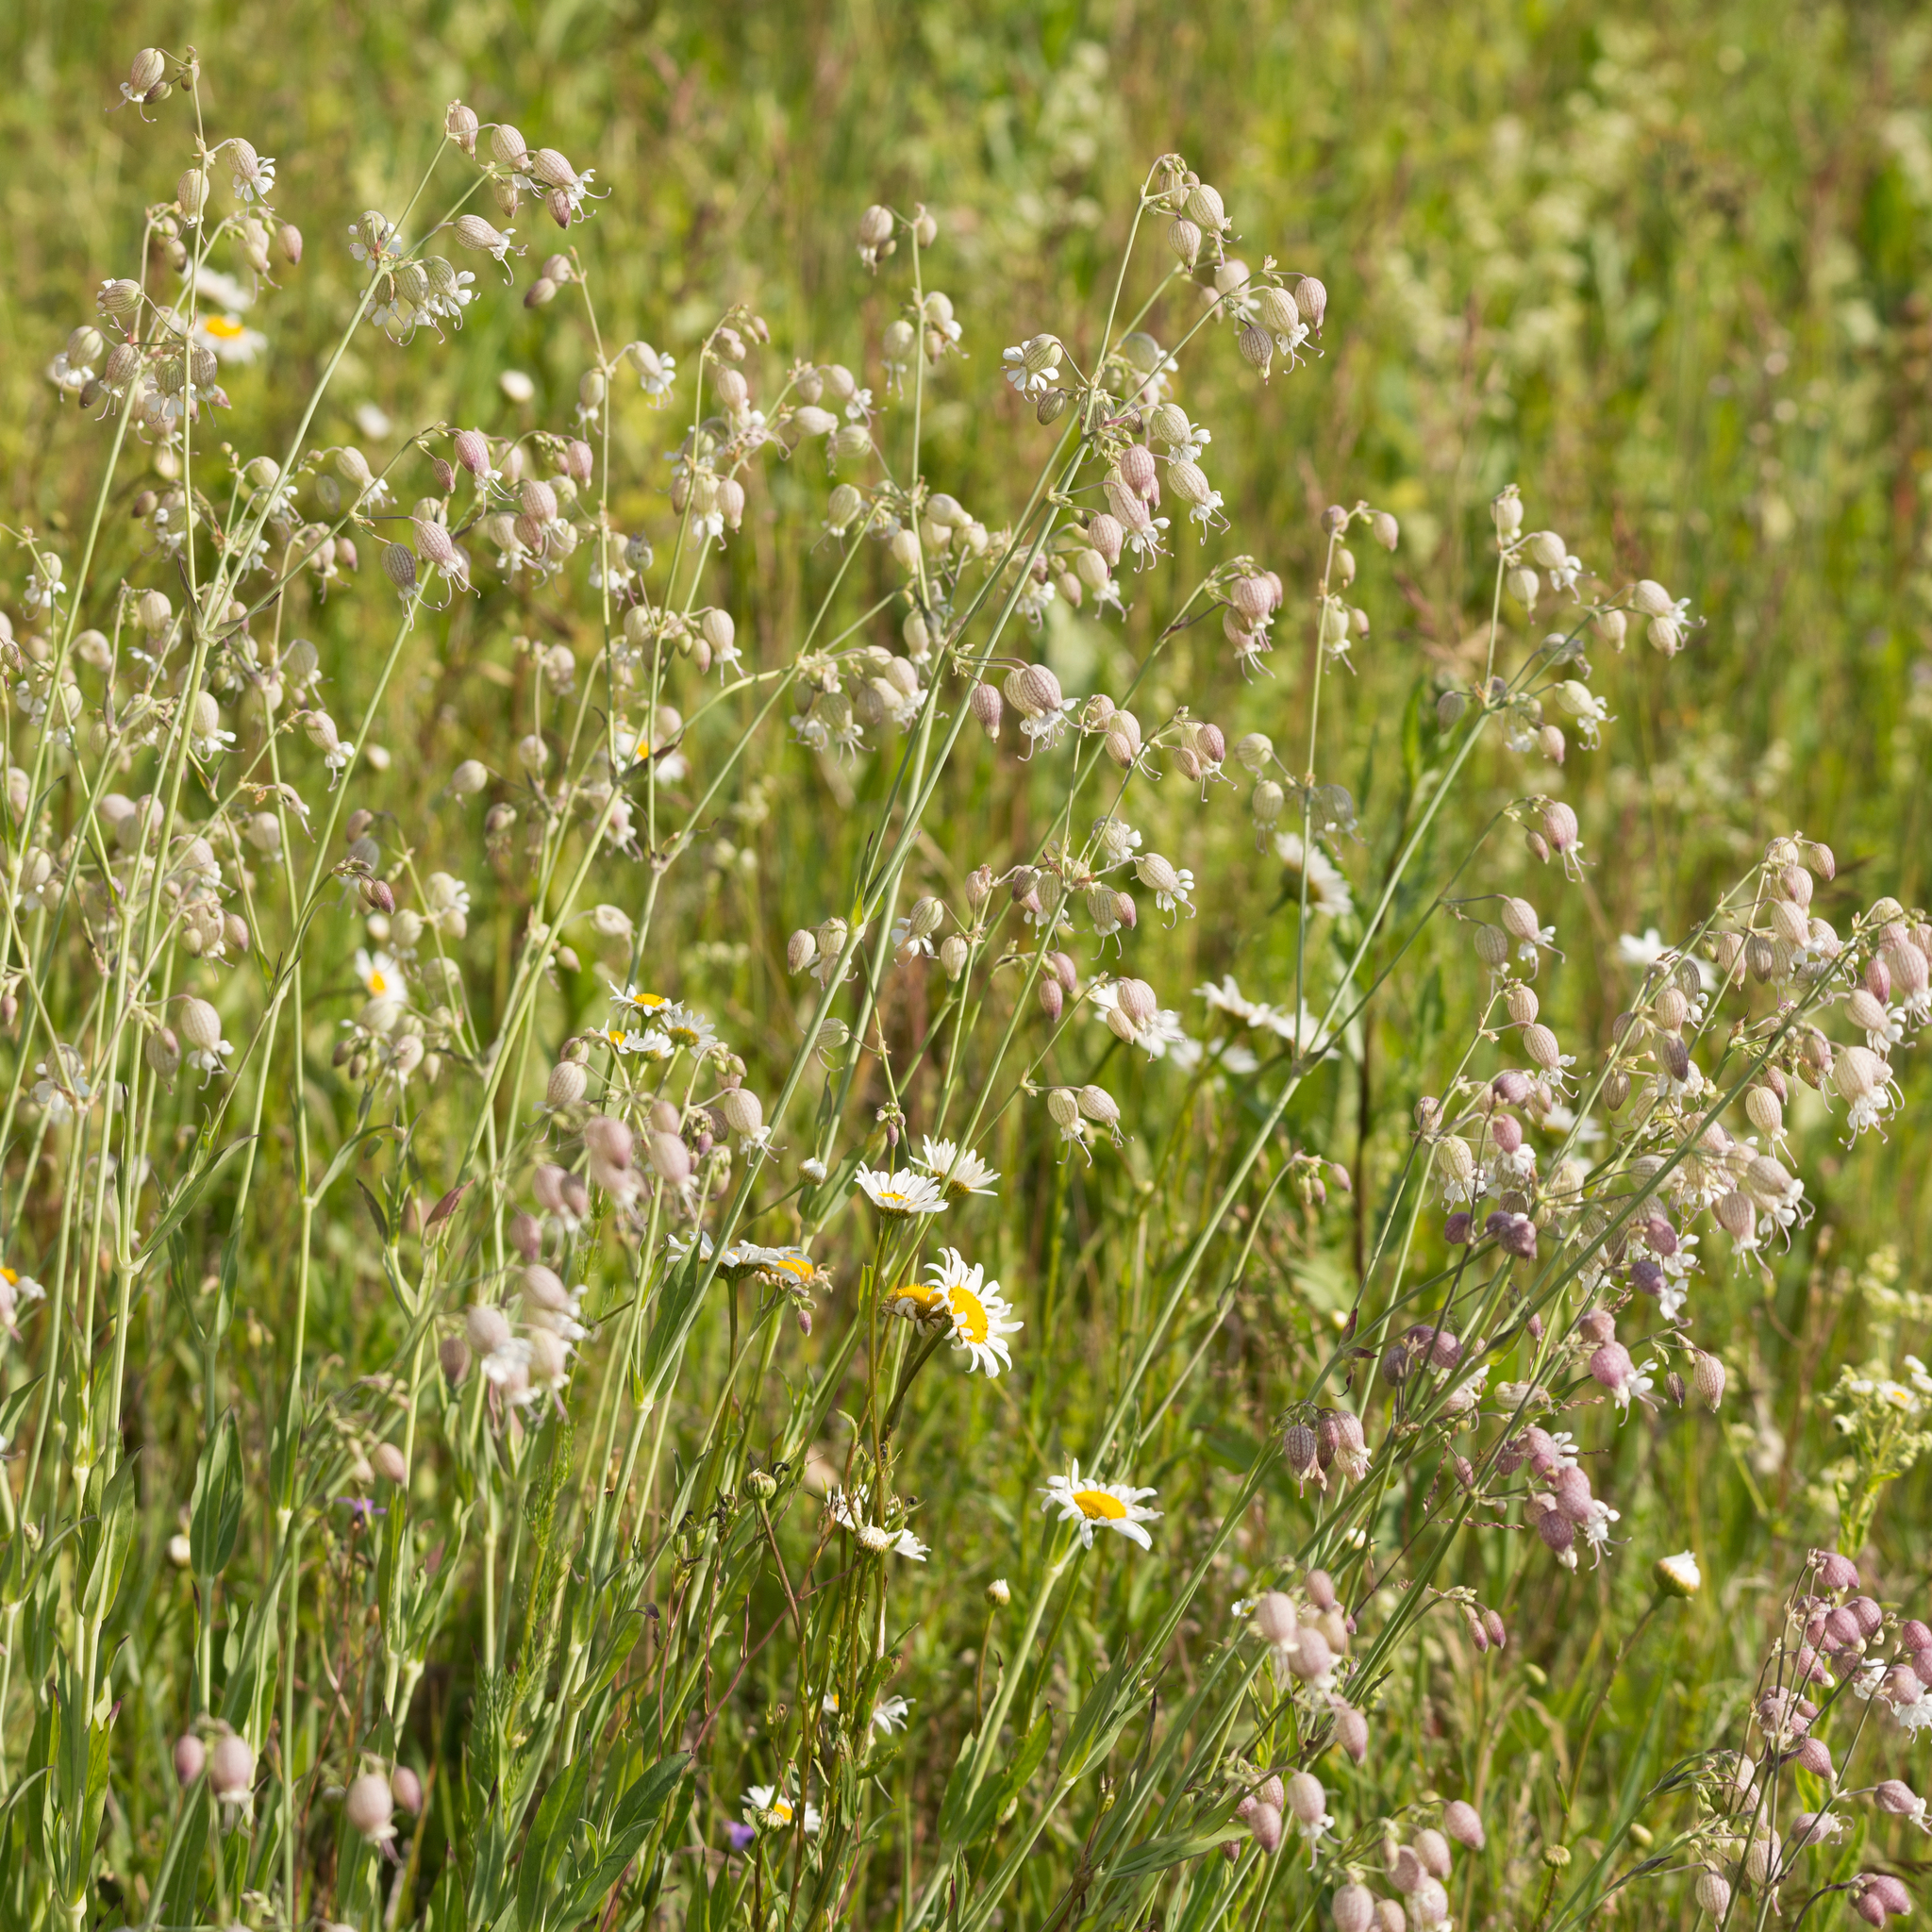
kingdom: Plantae
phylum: Tracheophyta
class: Magnoliopsida
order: Caryophyllales
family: Caryophyllaceae
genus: Silene
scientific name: Silene vulgaris
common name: Bladder campion
